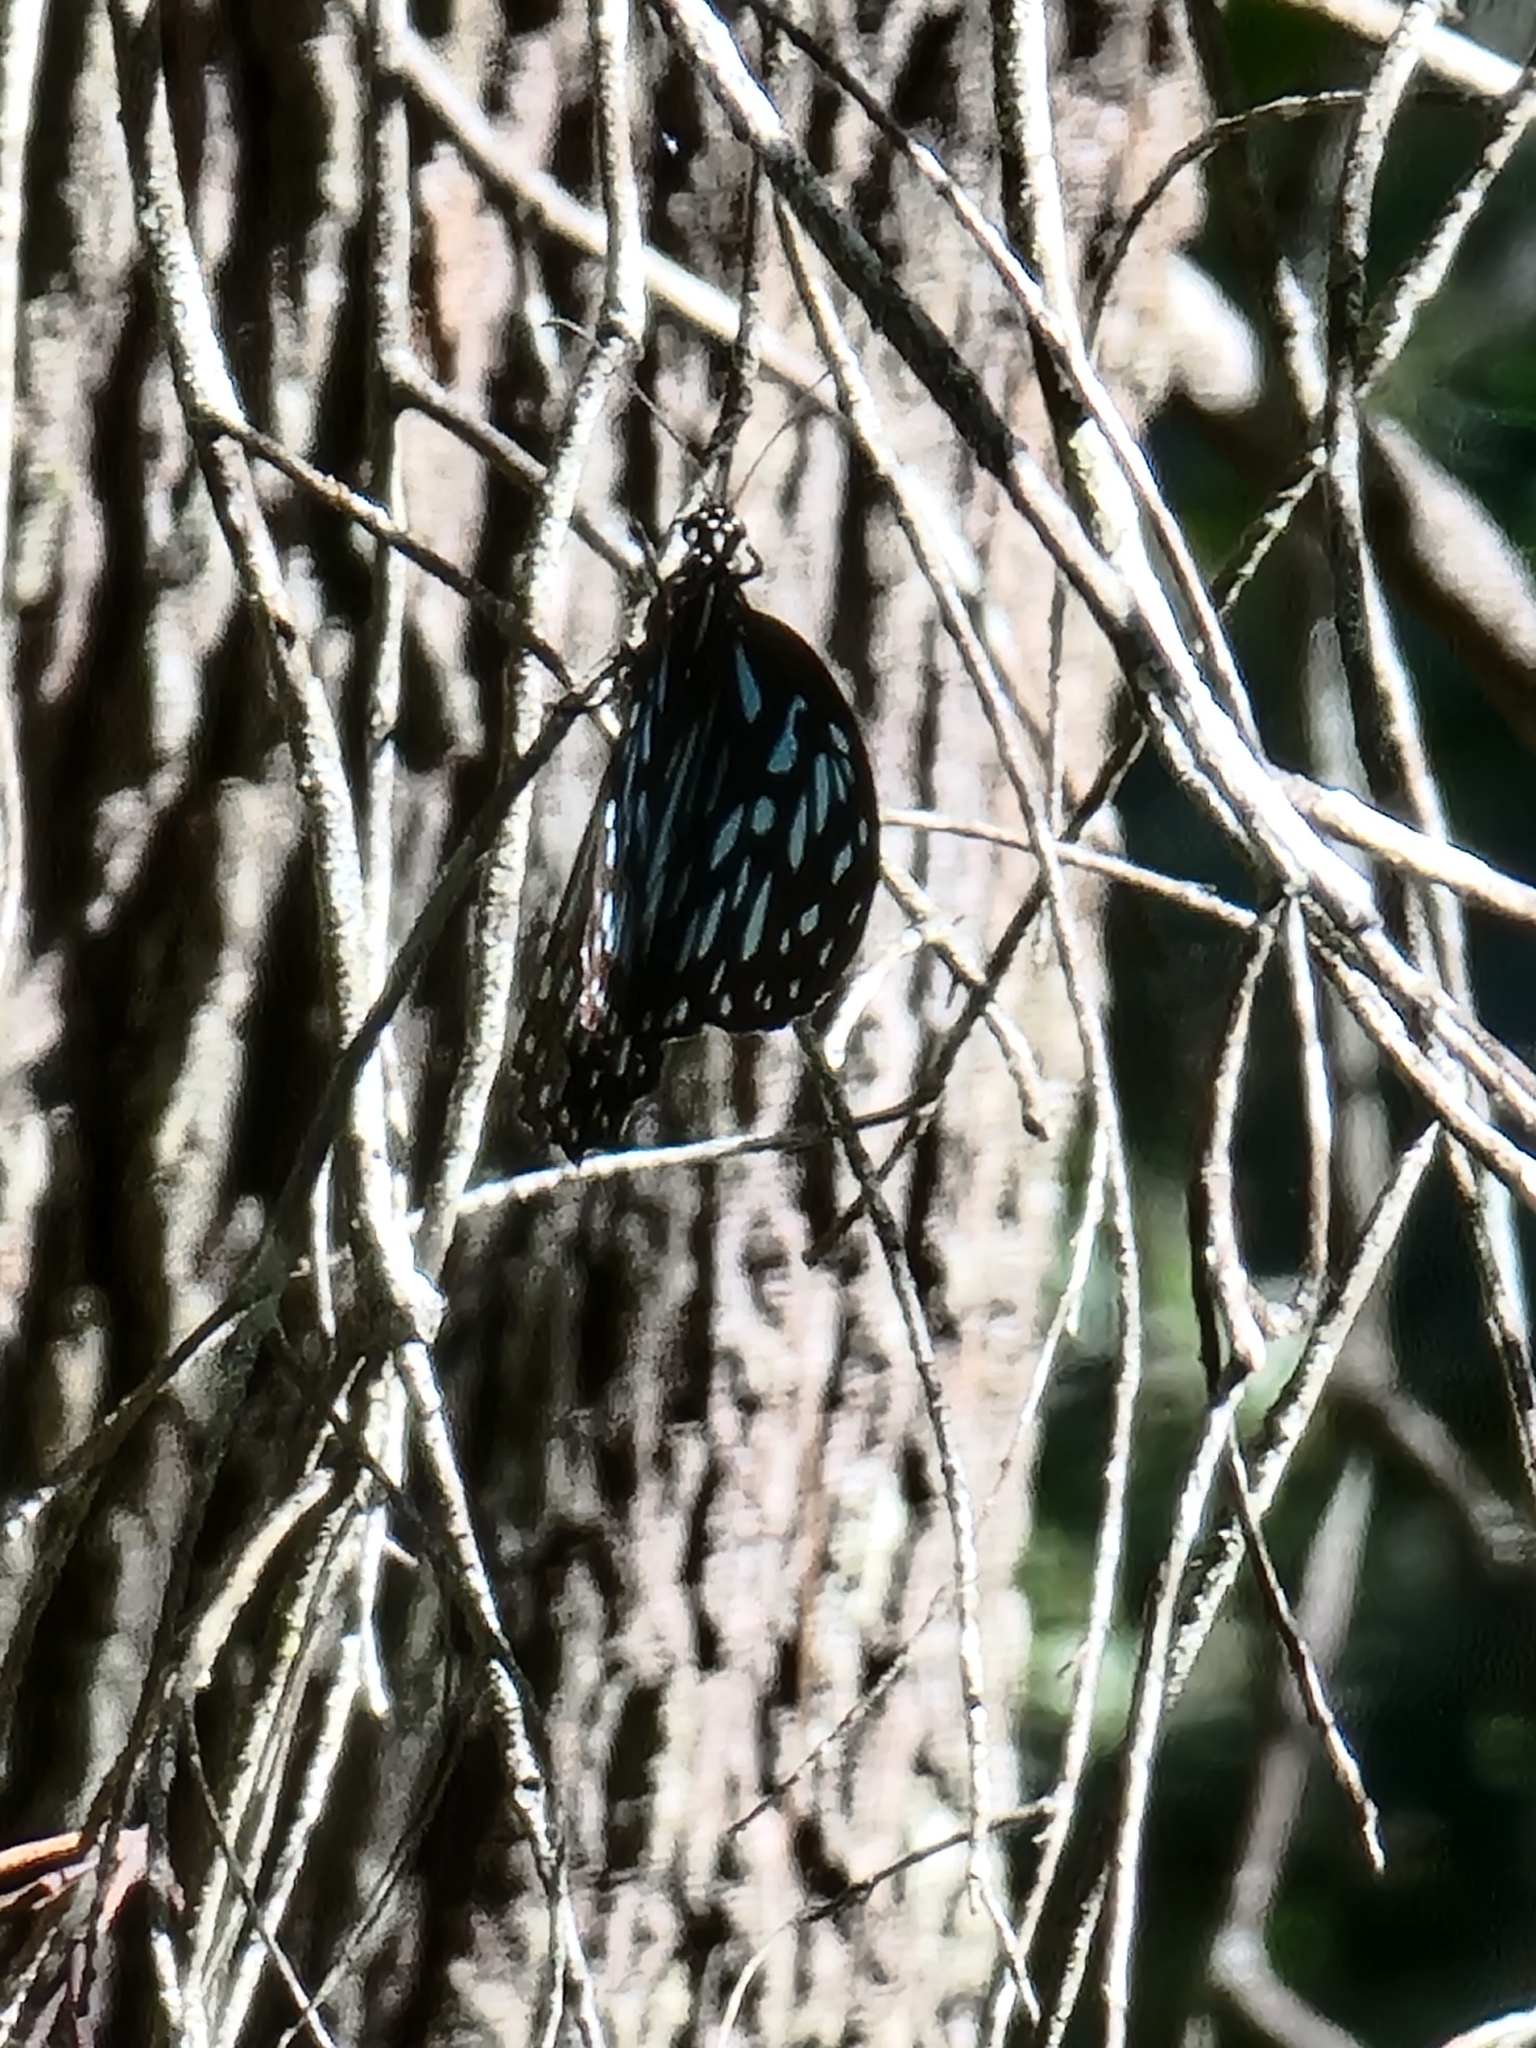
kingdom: Animalia
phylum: Arthropoda
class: Insecta
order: Lepidoptera
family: Nymphalidae
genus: Tirumala
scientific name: Tirumala hamata
